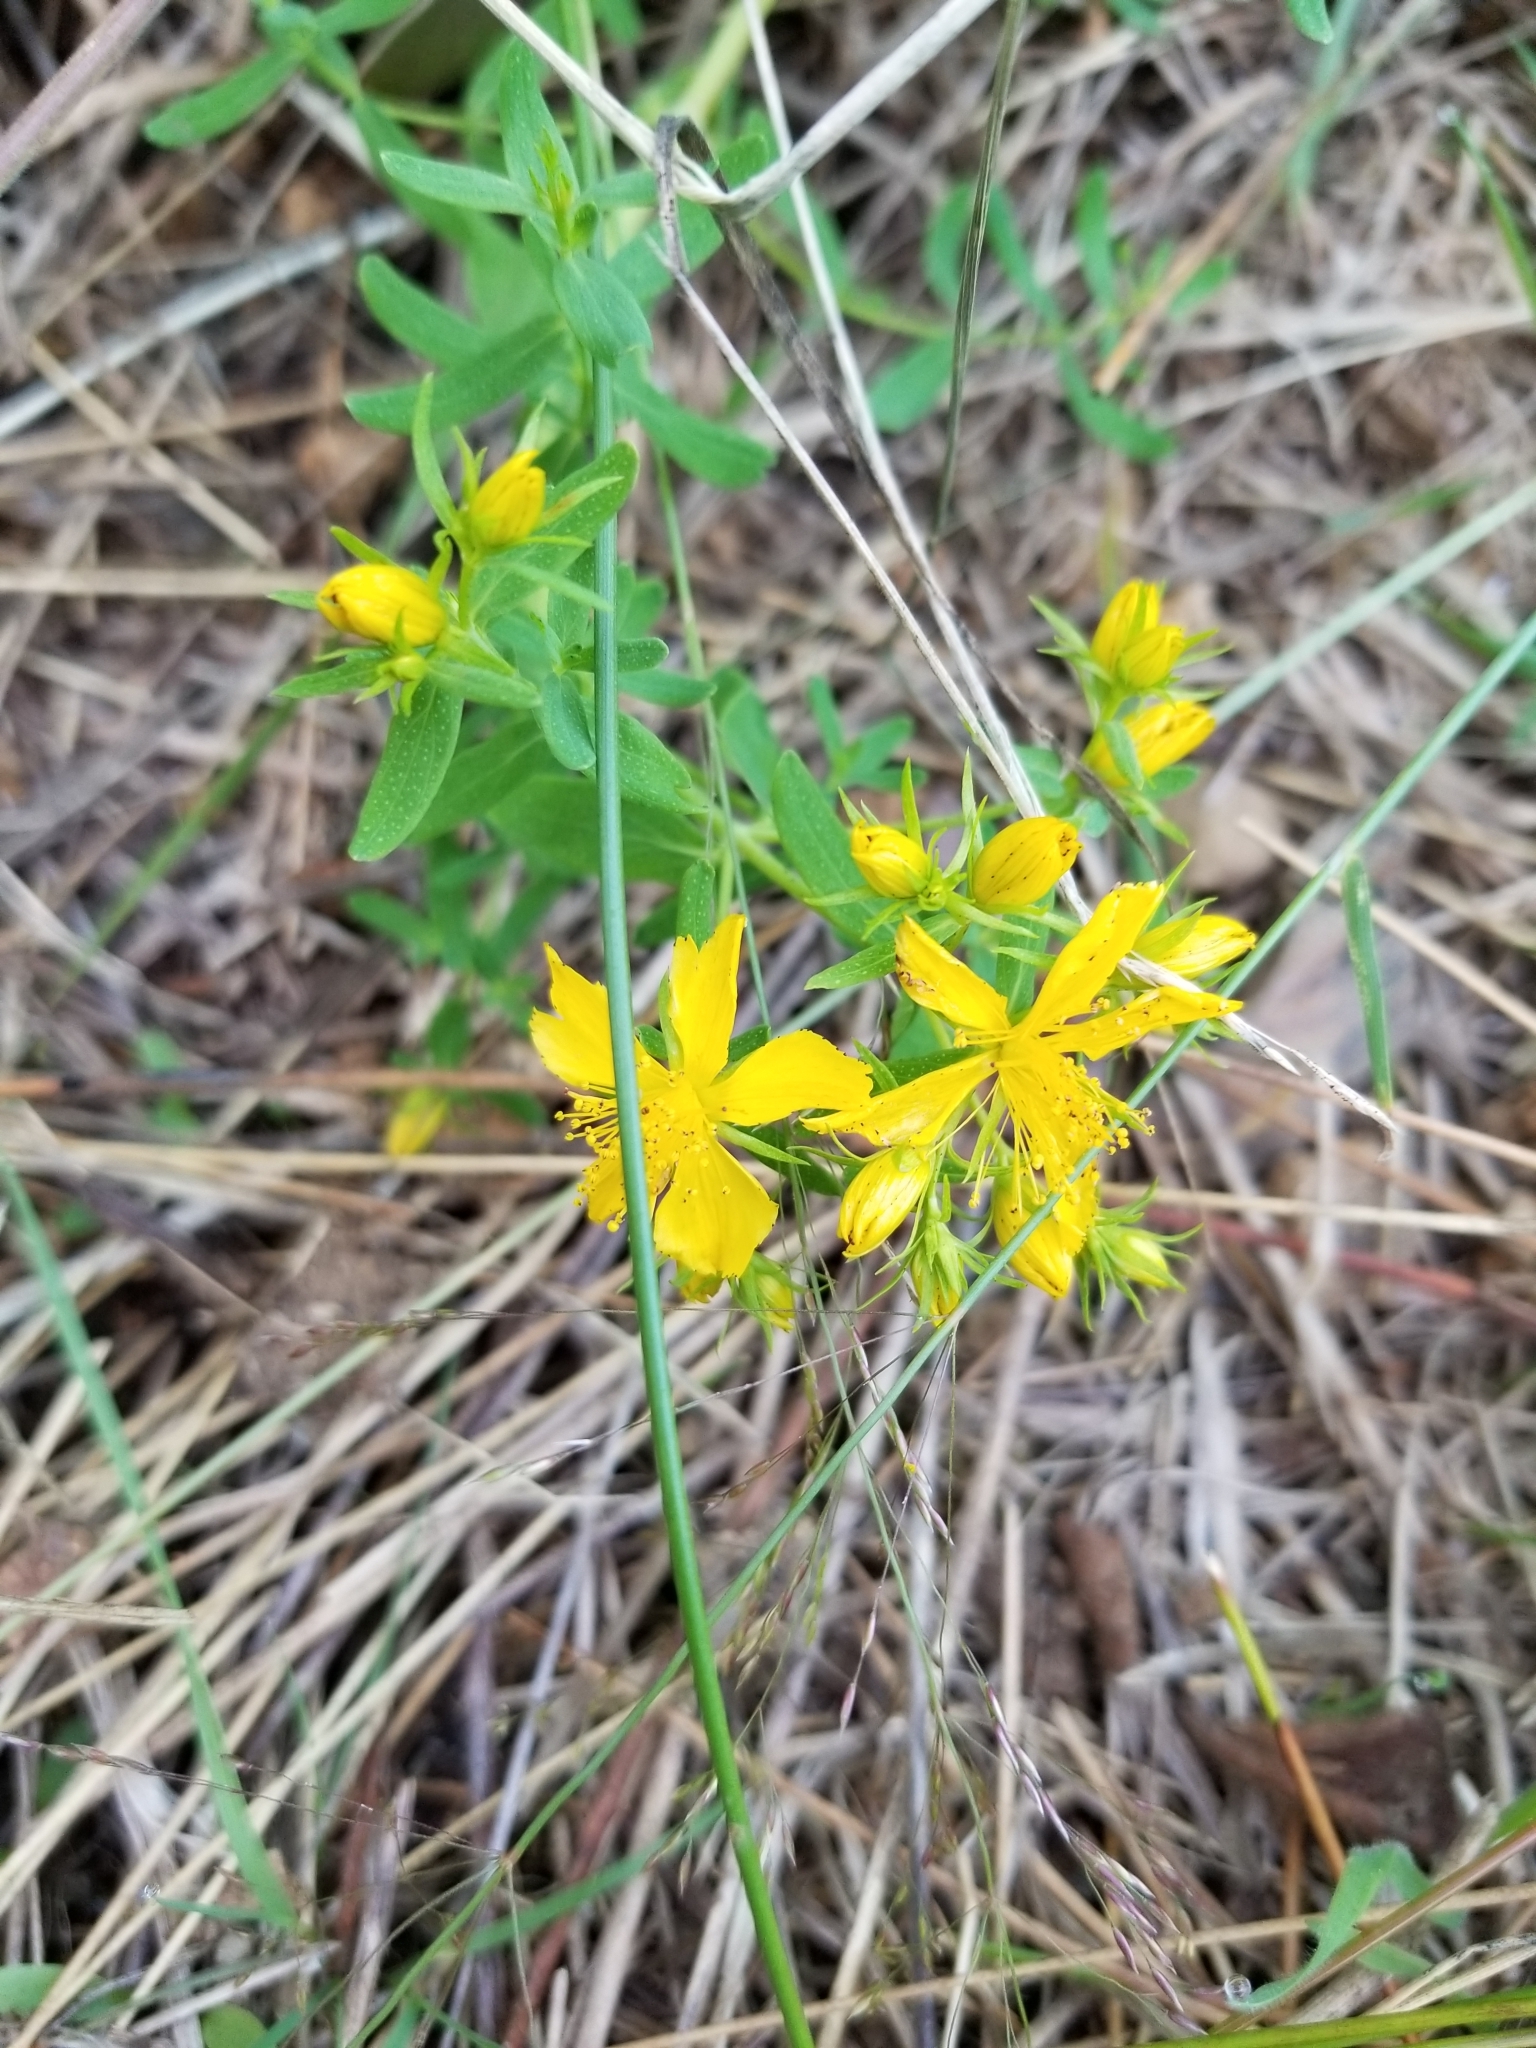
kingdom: Plantae
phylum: Tracheophyta
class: Magnoliopsida
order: Malpighiales
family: Hypericaceae
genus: Hypericum
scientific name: Hypericum perforatum
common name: Common st. johnswort
